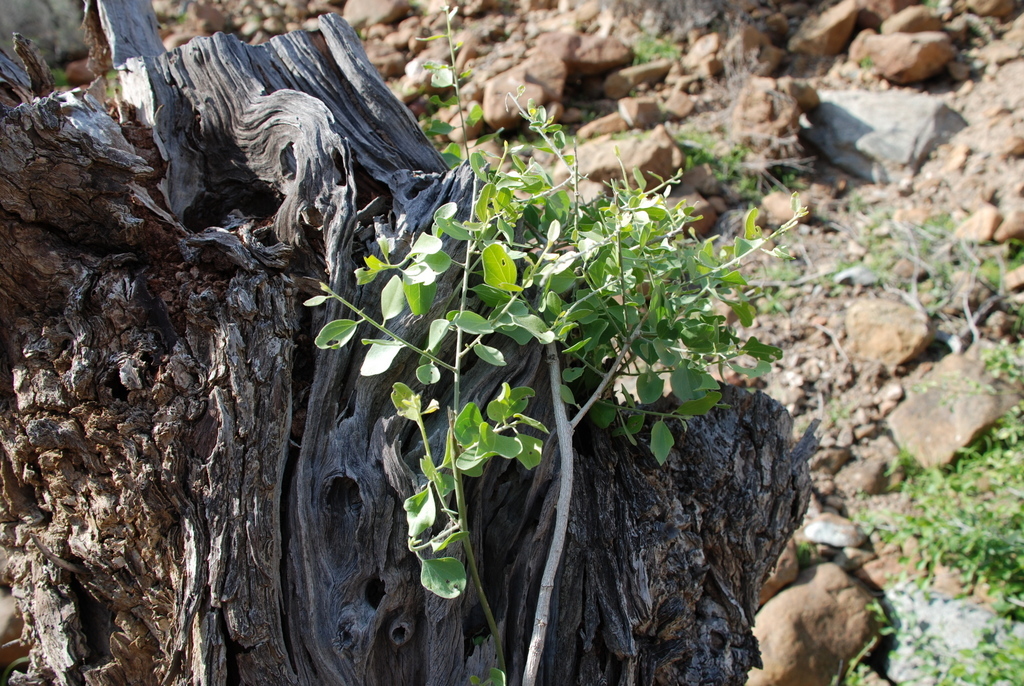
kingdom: Plantae
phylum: Tracheophyta
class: Magnoliopsida
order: Ranunculales
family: Menispermaceae
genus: Cocculus
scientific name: Cocculus pendulus
